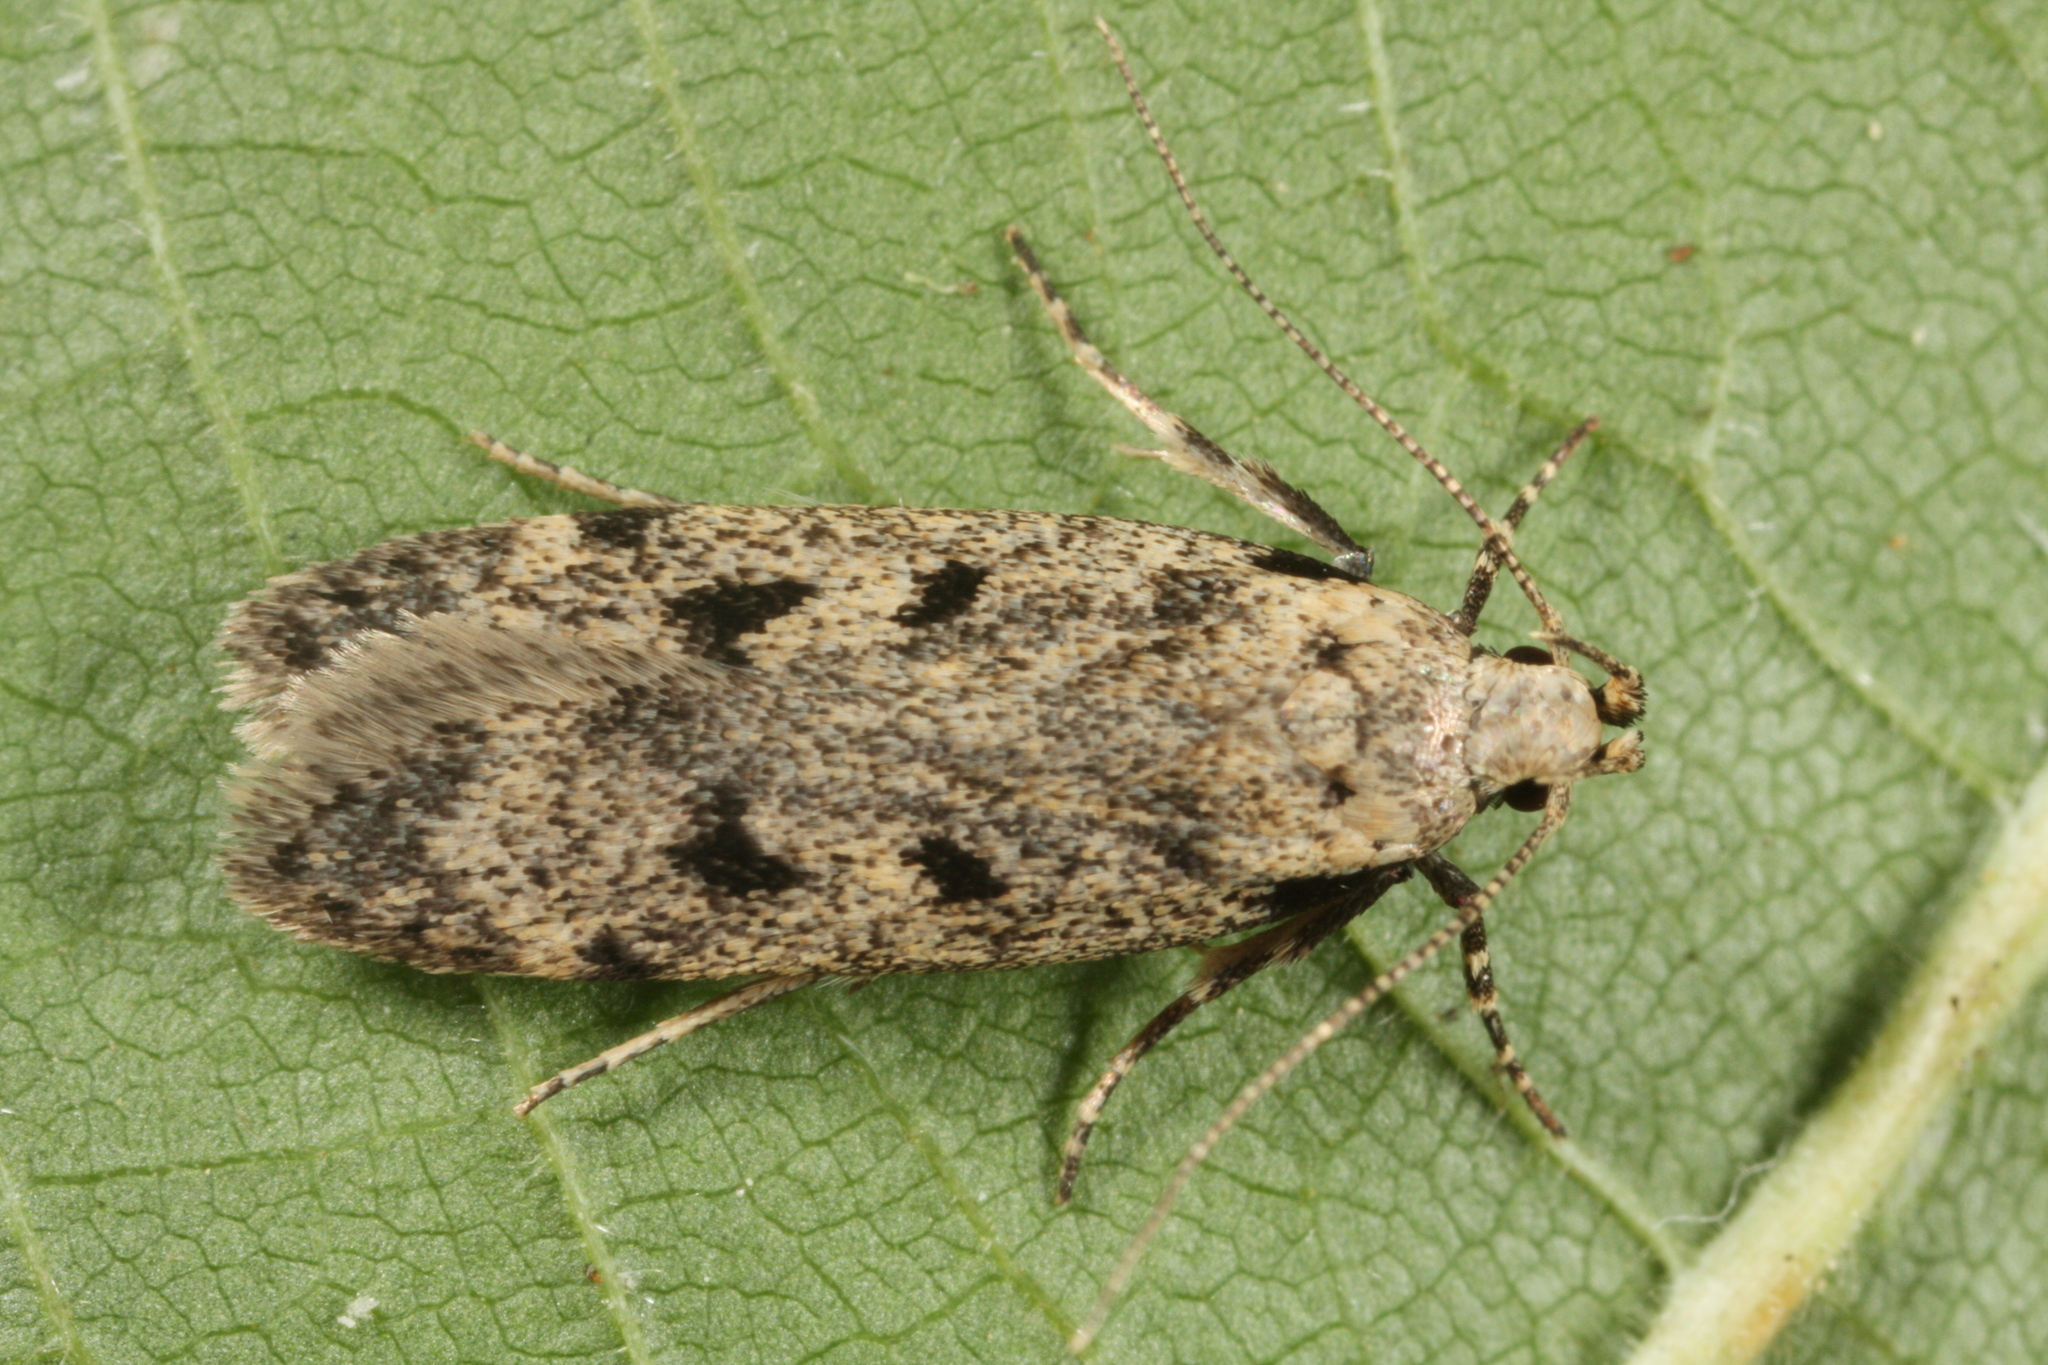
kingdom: Animalia
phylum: Arthropoda
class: Insecta
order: Lepidoptera
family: Gelechiidae
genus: Gelechia
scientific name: Gelechia rhombella
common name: Apple groundling
